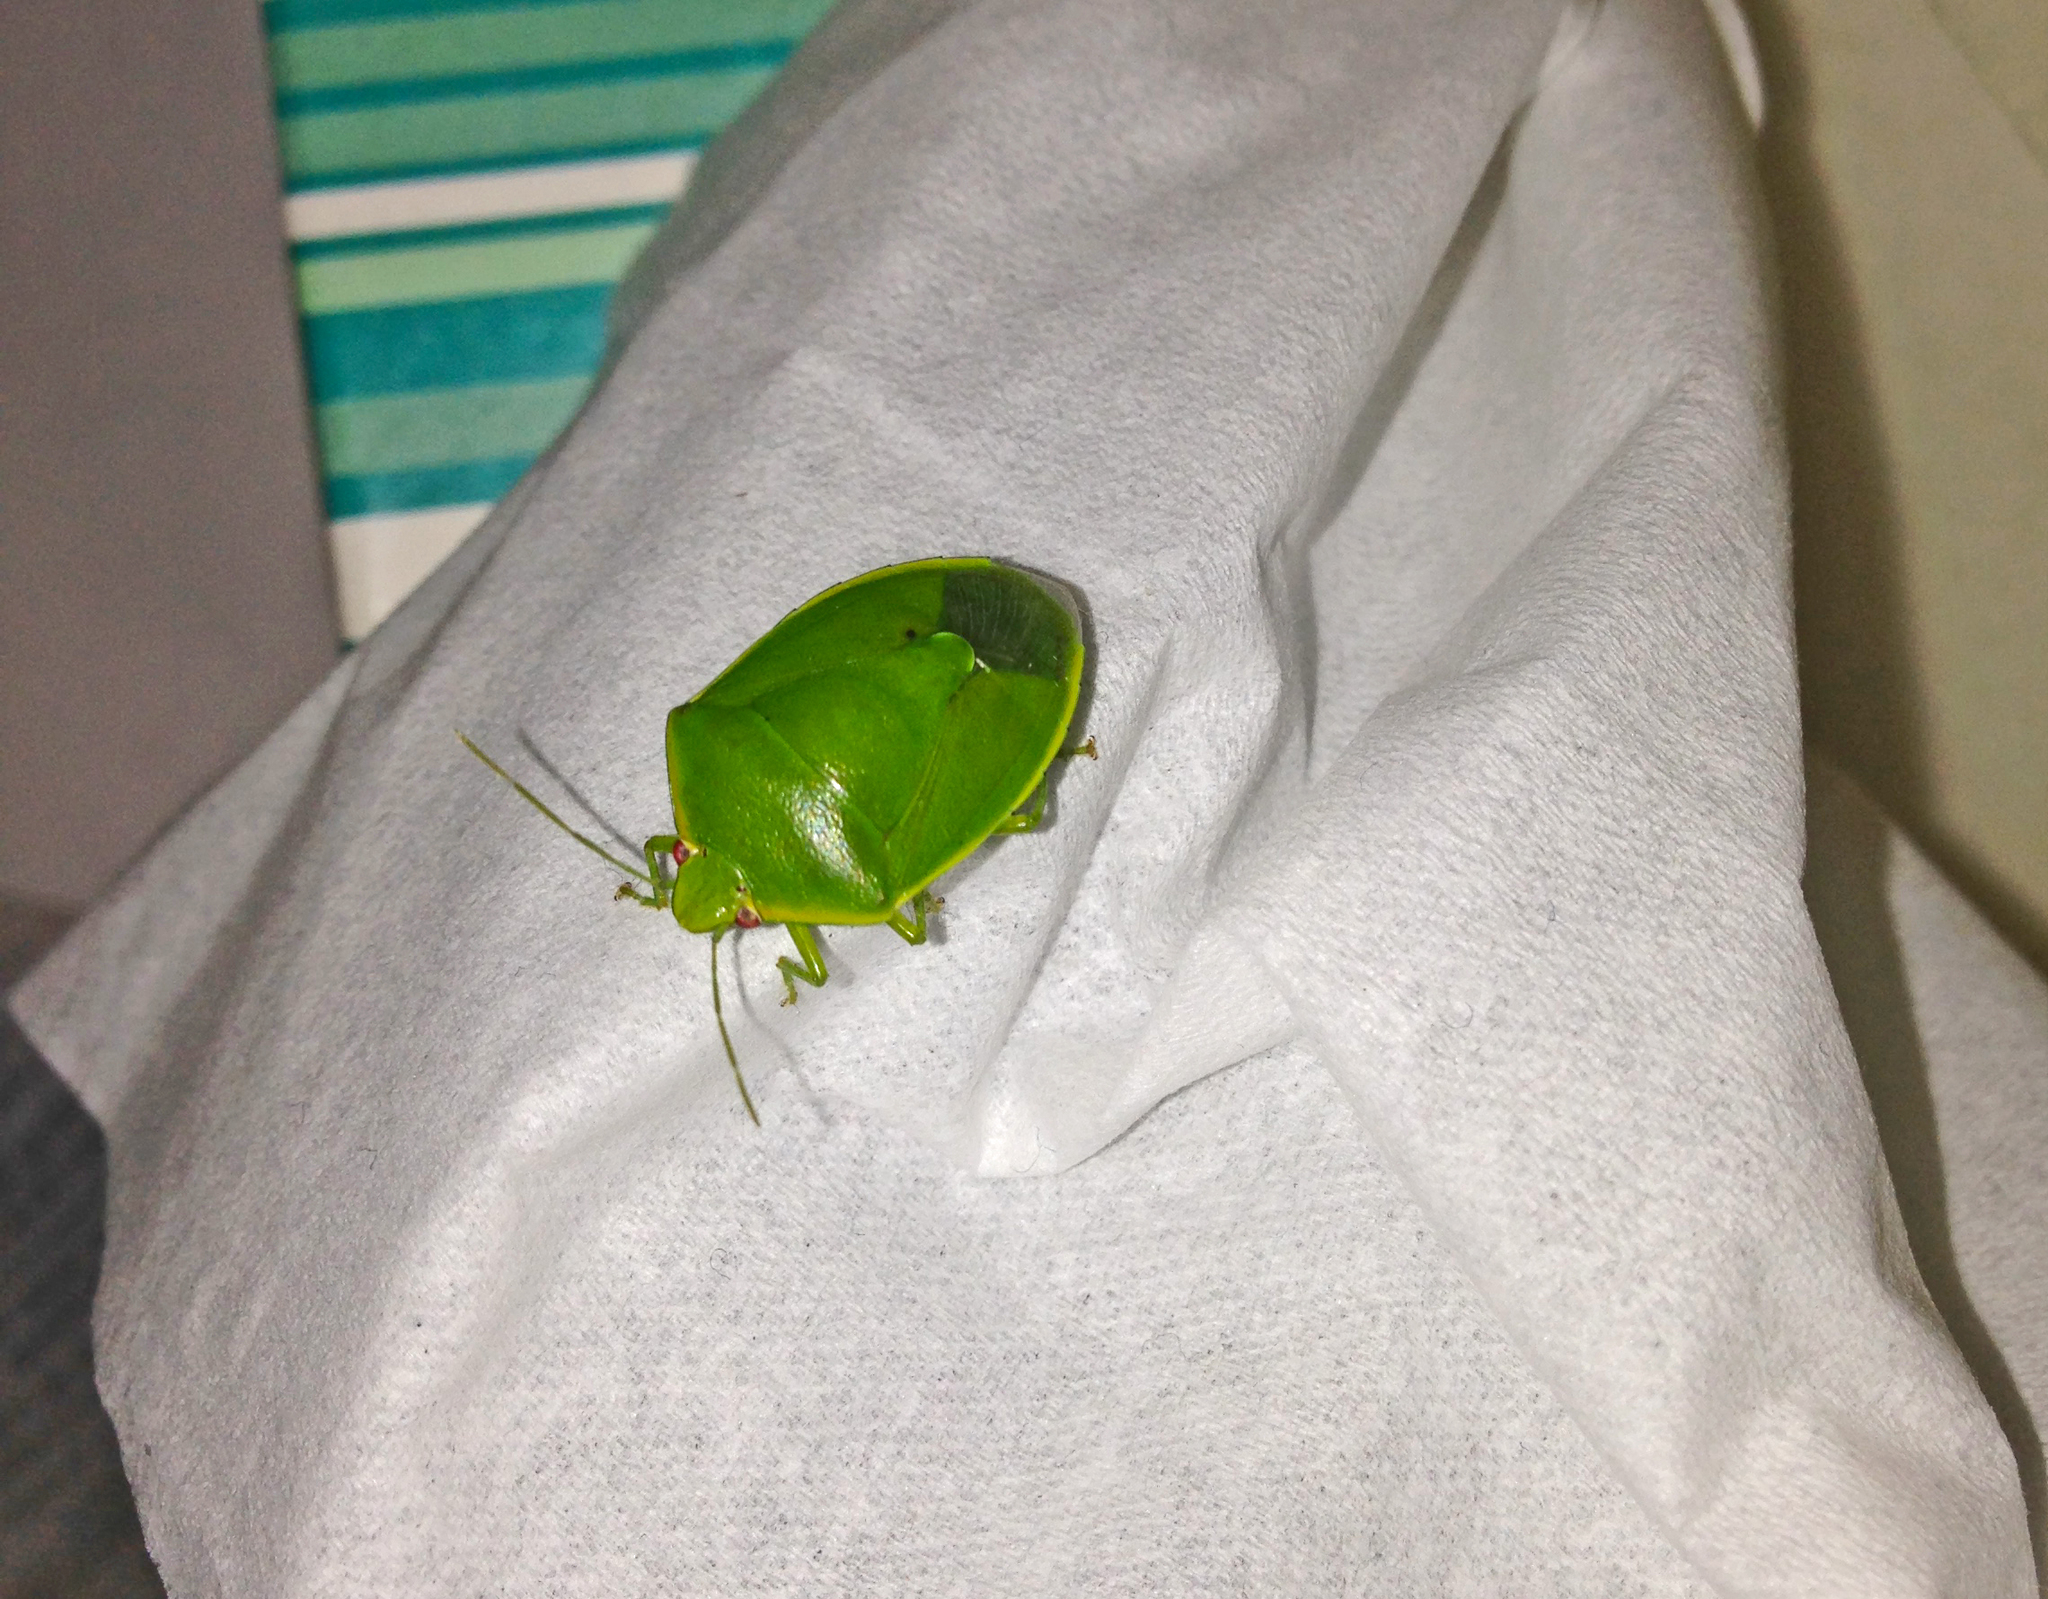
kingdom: Animalia
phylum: Arthropoda
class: Insecta
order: Hemiptera
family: Pentatomidae
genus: Glaucias
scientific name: Glaucias amyota
